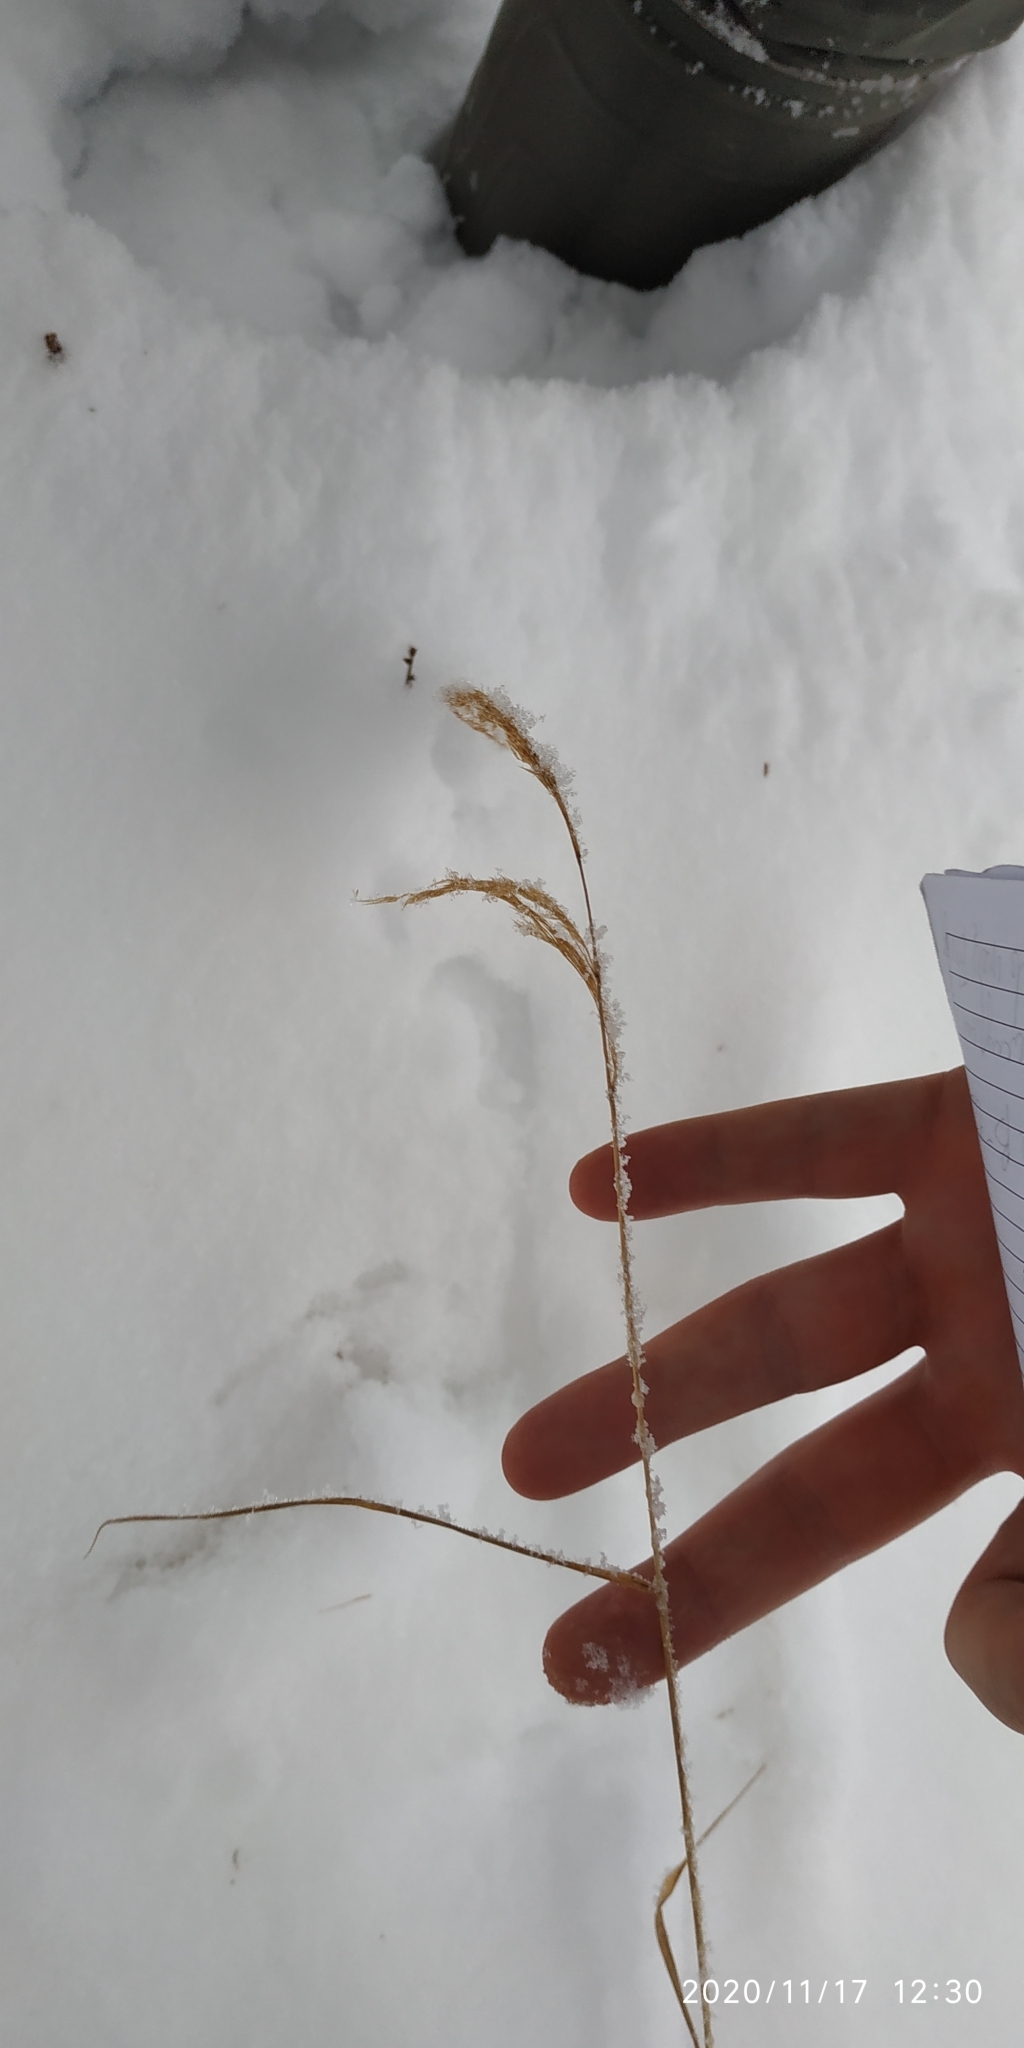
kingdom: Plantae
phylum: Tracheophyta
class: Liliopsida
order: Poales
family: Poaceae
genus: Calamagrostis
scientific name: Calamagrostis purpurea
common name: Scandinavian small-reed
